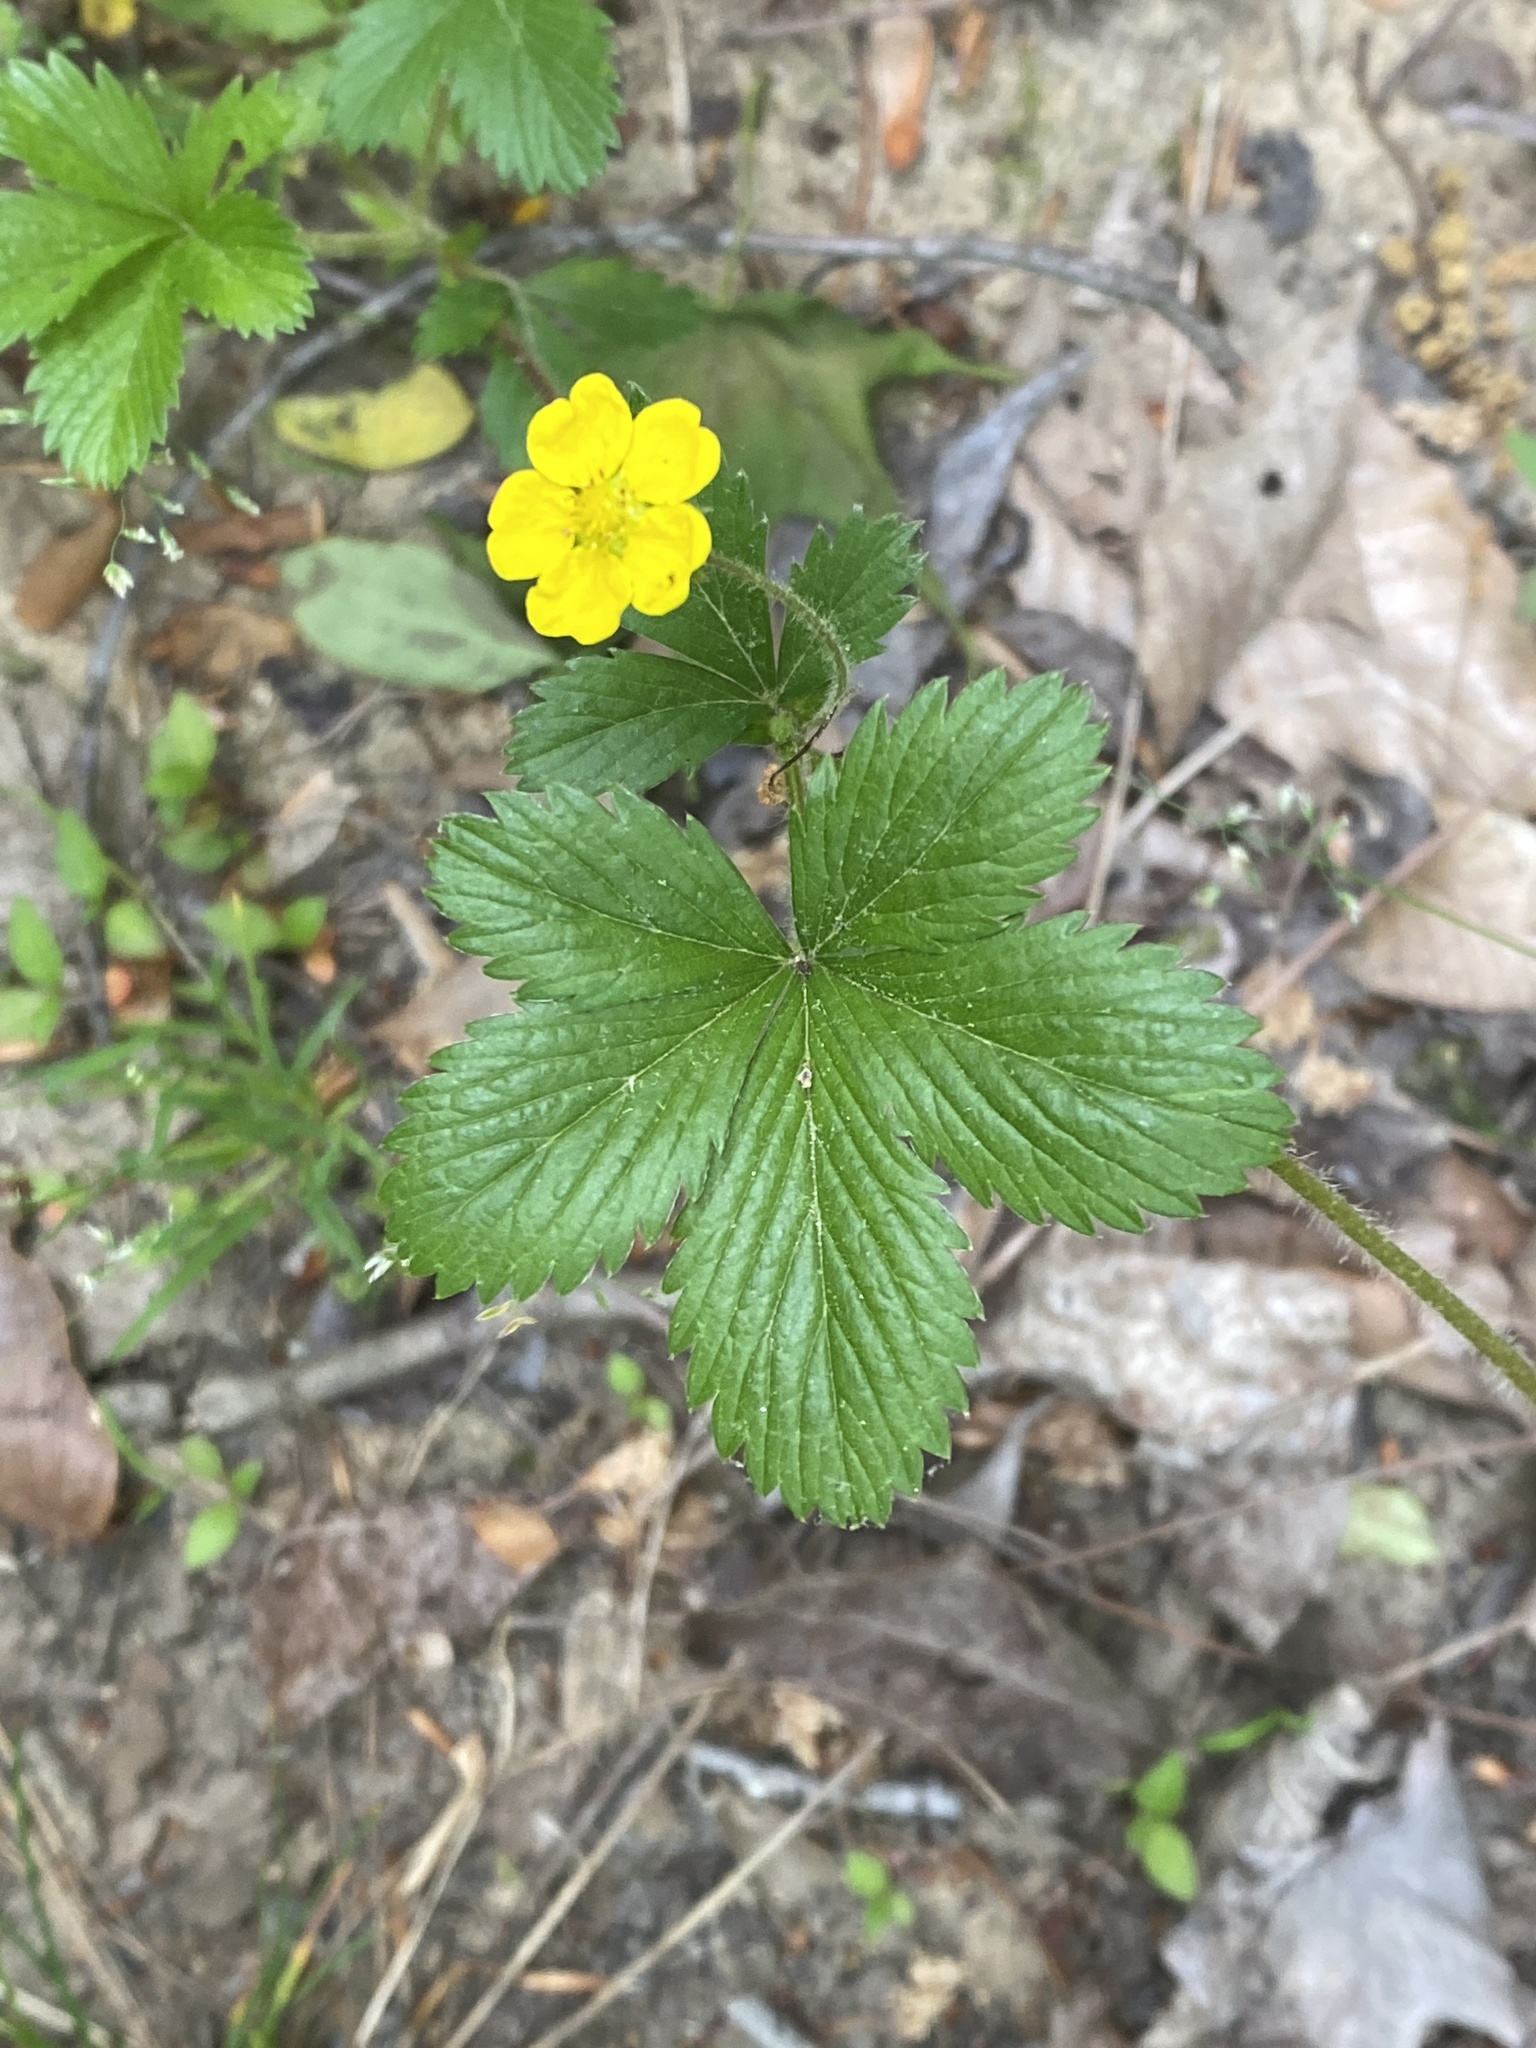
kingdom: Plantae
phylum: Tracheophyta
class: Magnoliopsida
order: Rosales
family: Rosaceae
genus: Potentilla
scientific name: Potentilla simplex
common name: Old field cinquefoil
